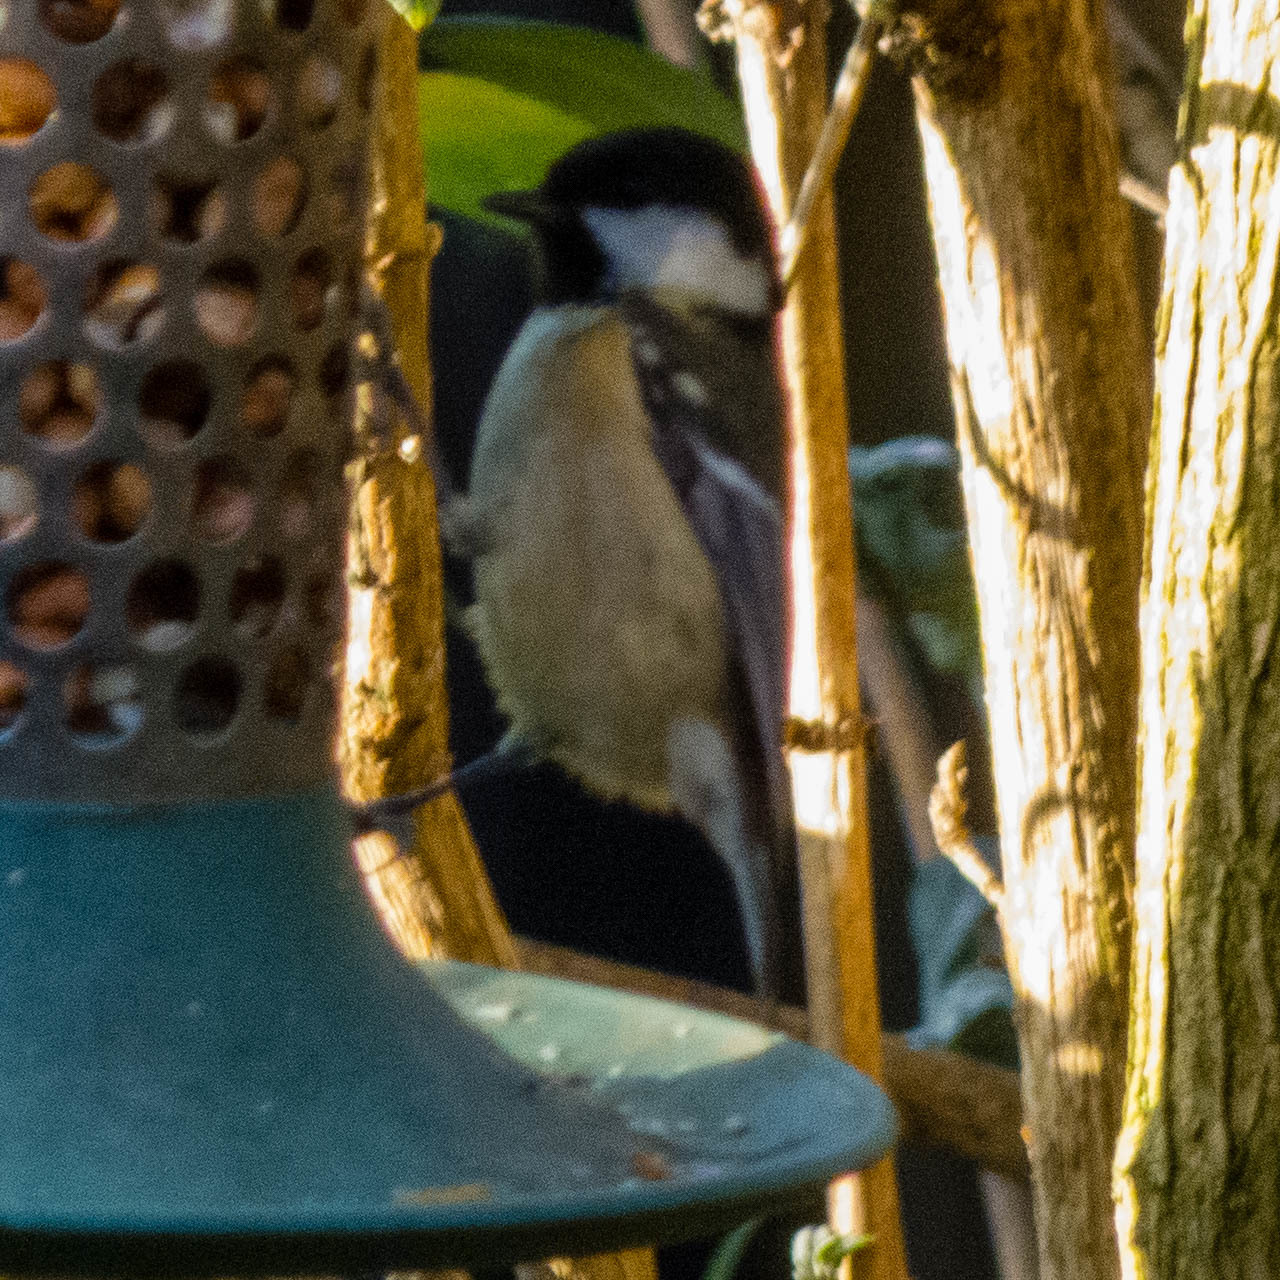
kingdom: Animalia
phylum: Chordata
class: Aves
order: Passeriformes
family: Paridae
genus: Periparus
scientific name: Periparus ater
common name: Coal tit
